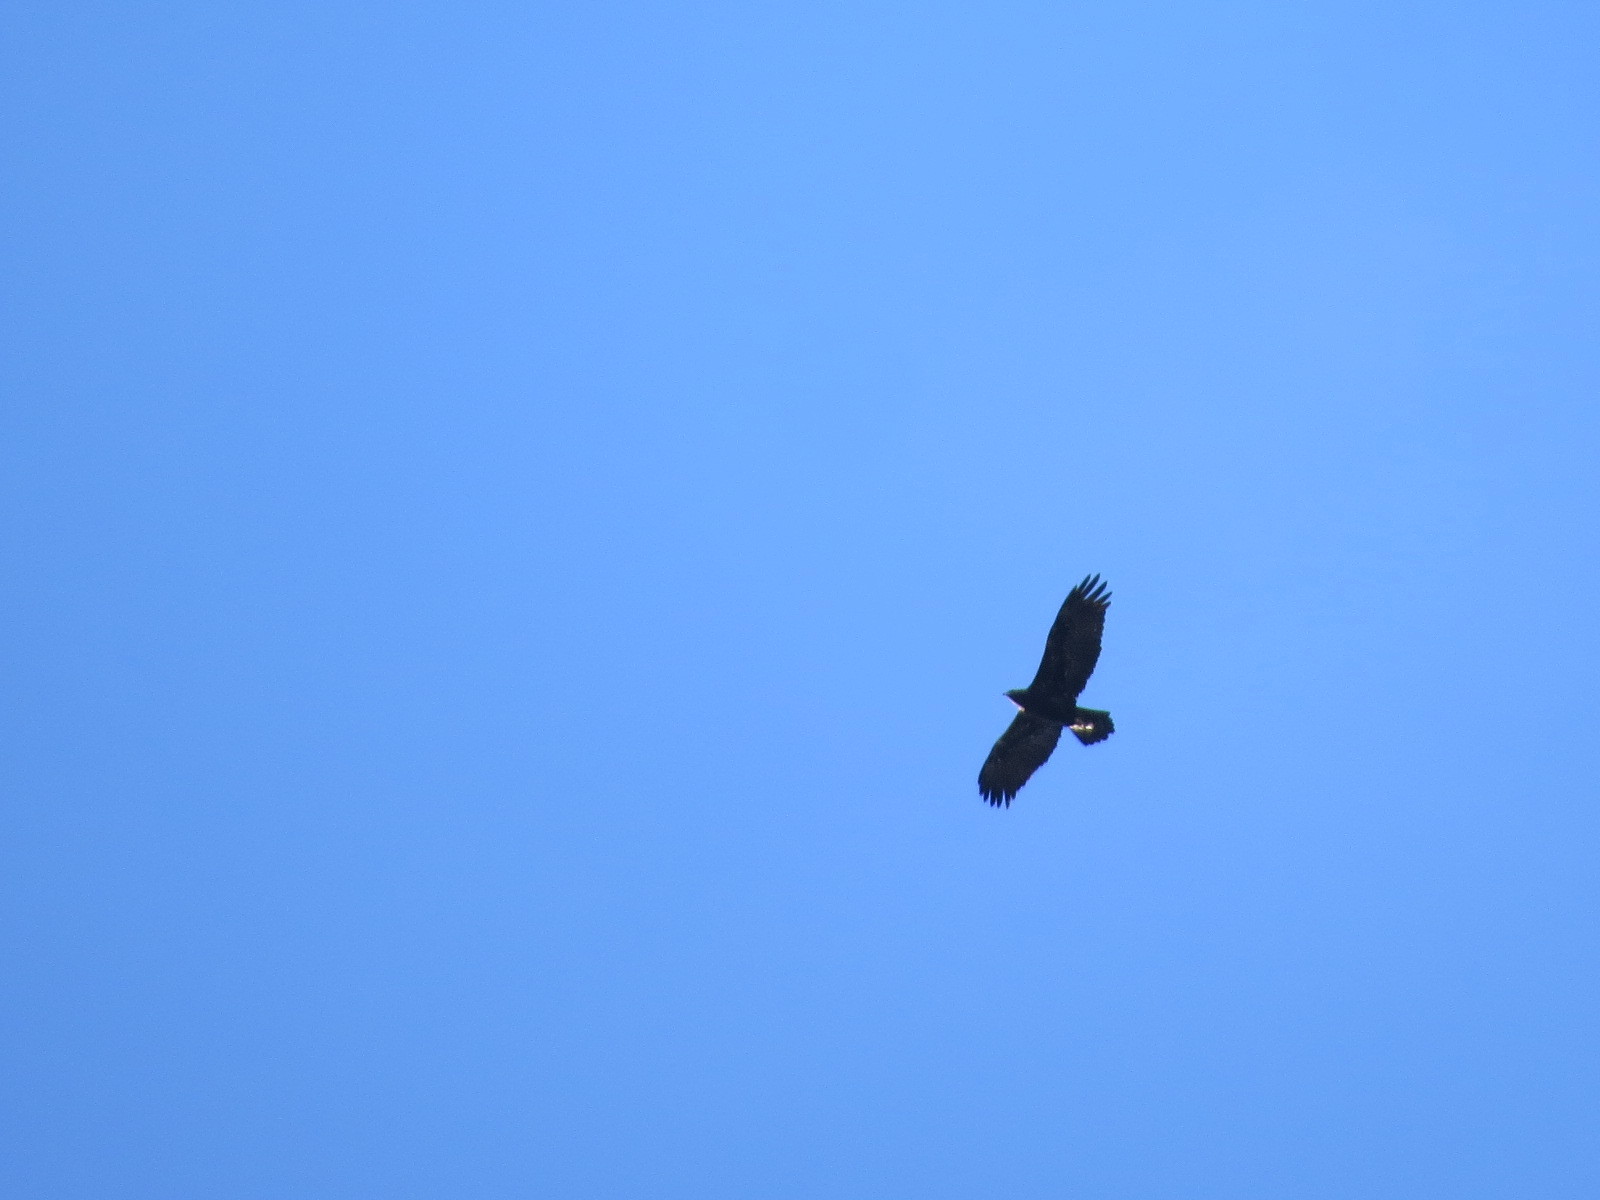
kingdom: Animalia
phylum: Chordata
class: Aves
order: Accipitriformes
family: Accipitridae
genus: Aquila
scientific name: Aquila chrysaetos
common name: Golden eagle
